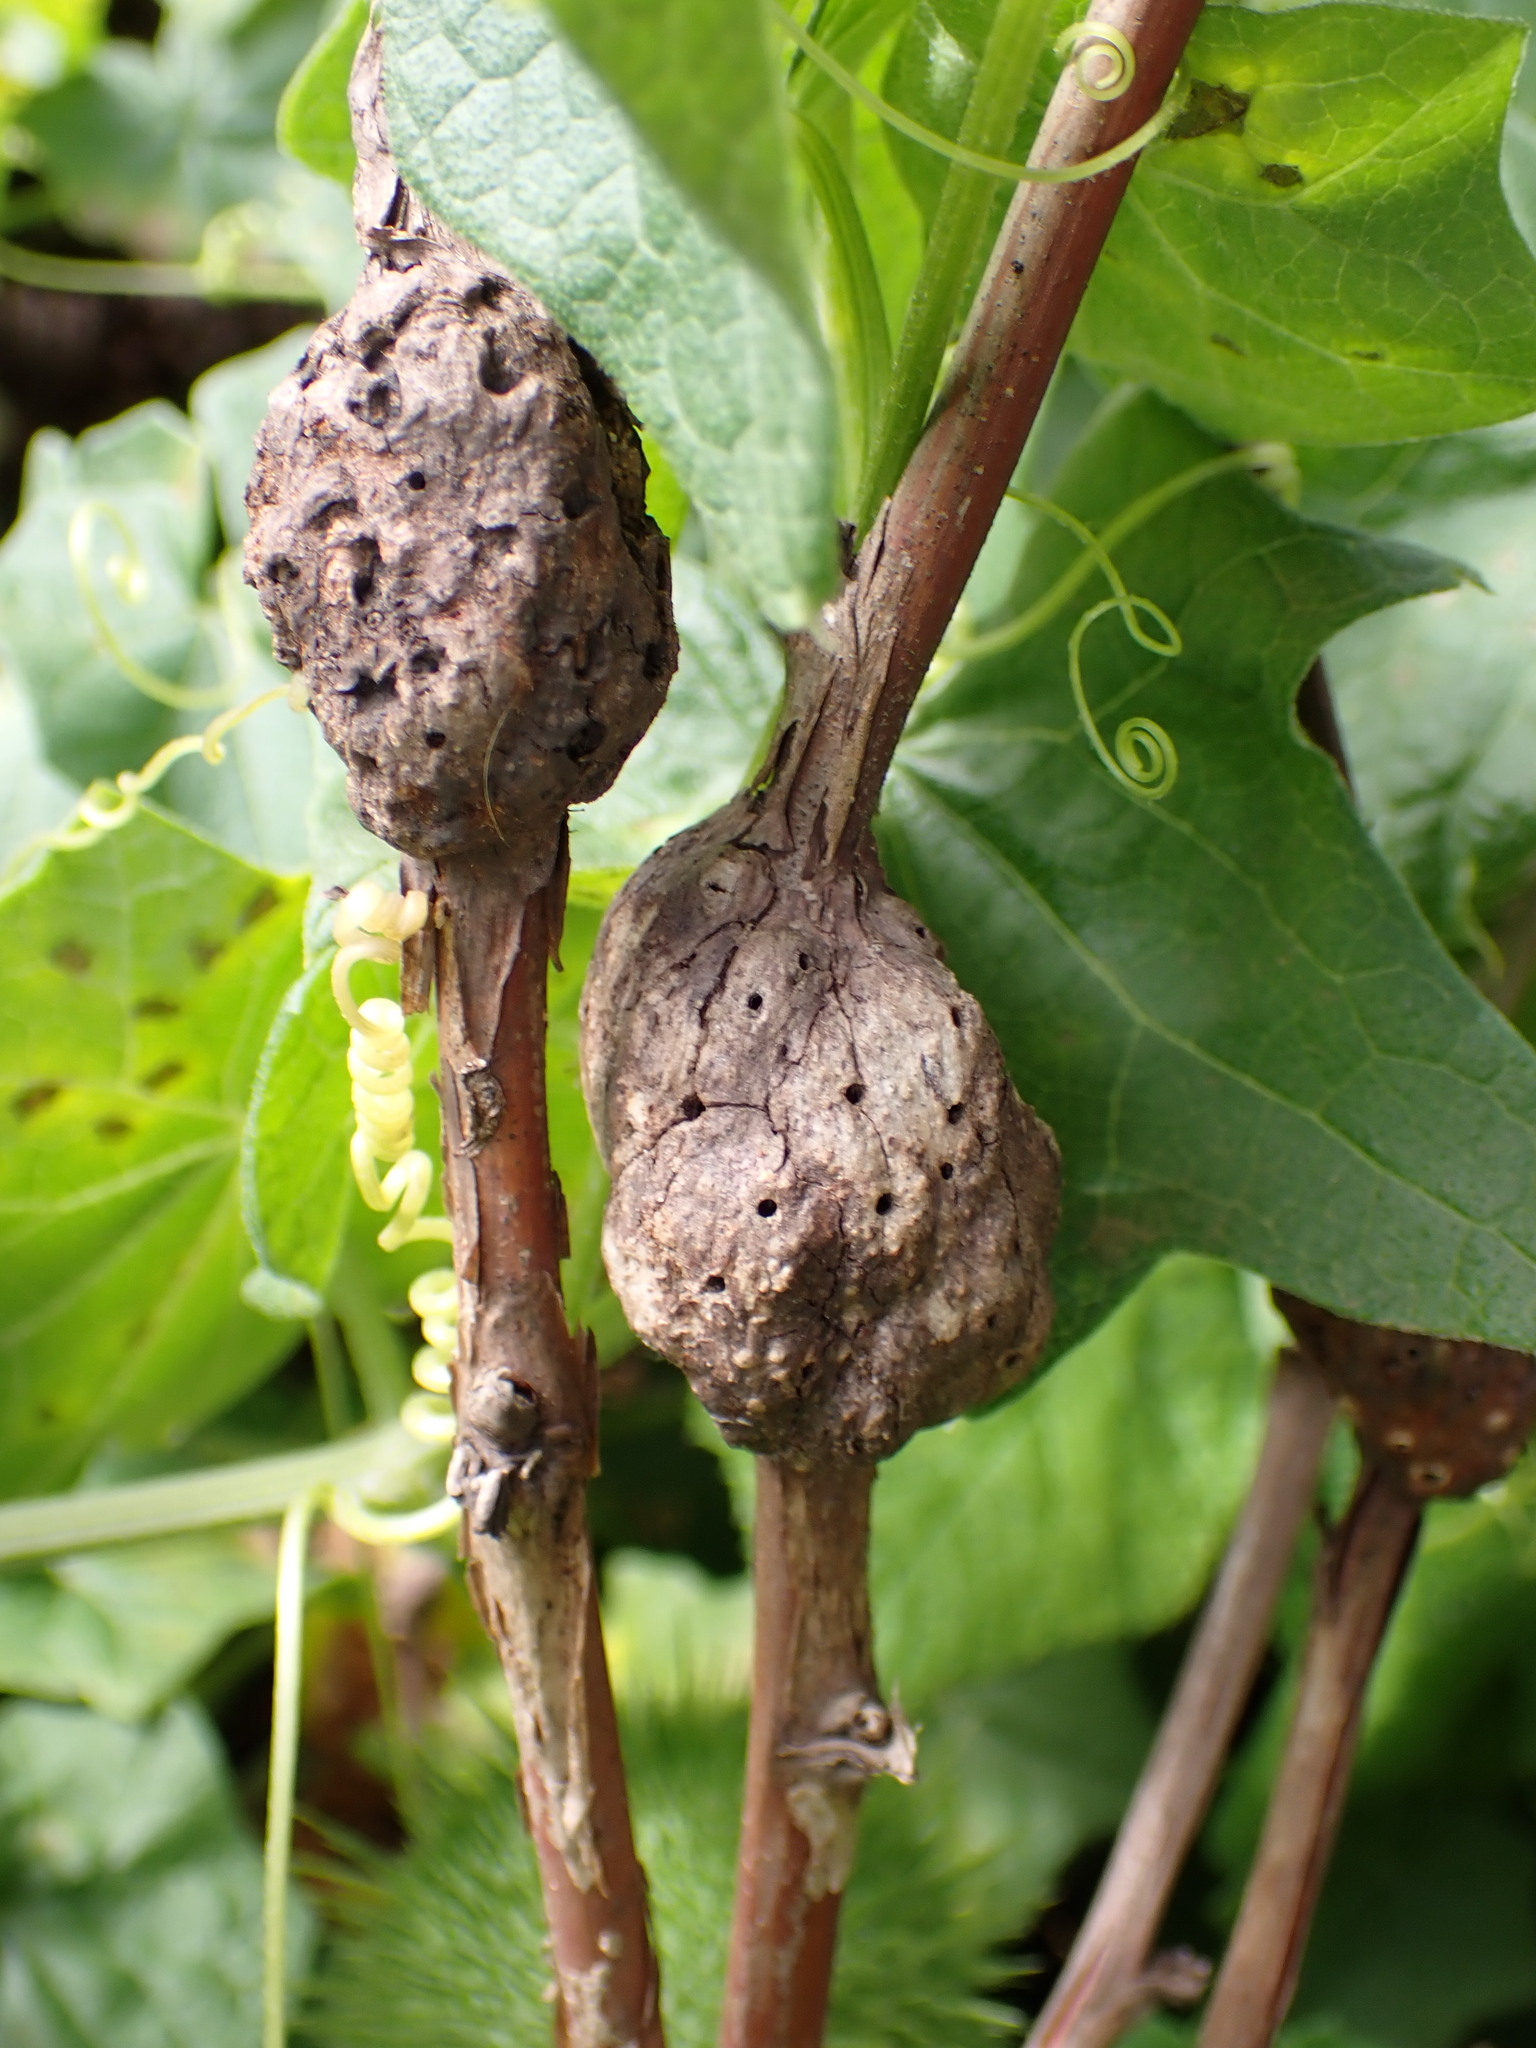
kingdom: Animalia
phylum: Arthropoda
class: Insecta
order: Hymenoptera
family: Cynipidae
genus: Diastrophus
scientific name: Diastrophus
